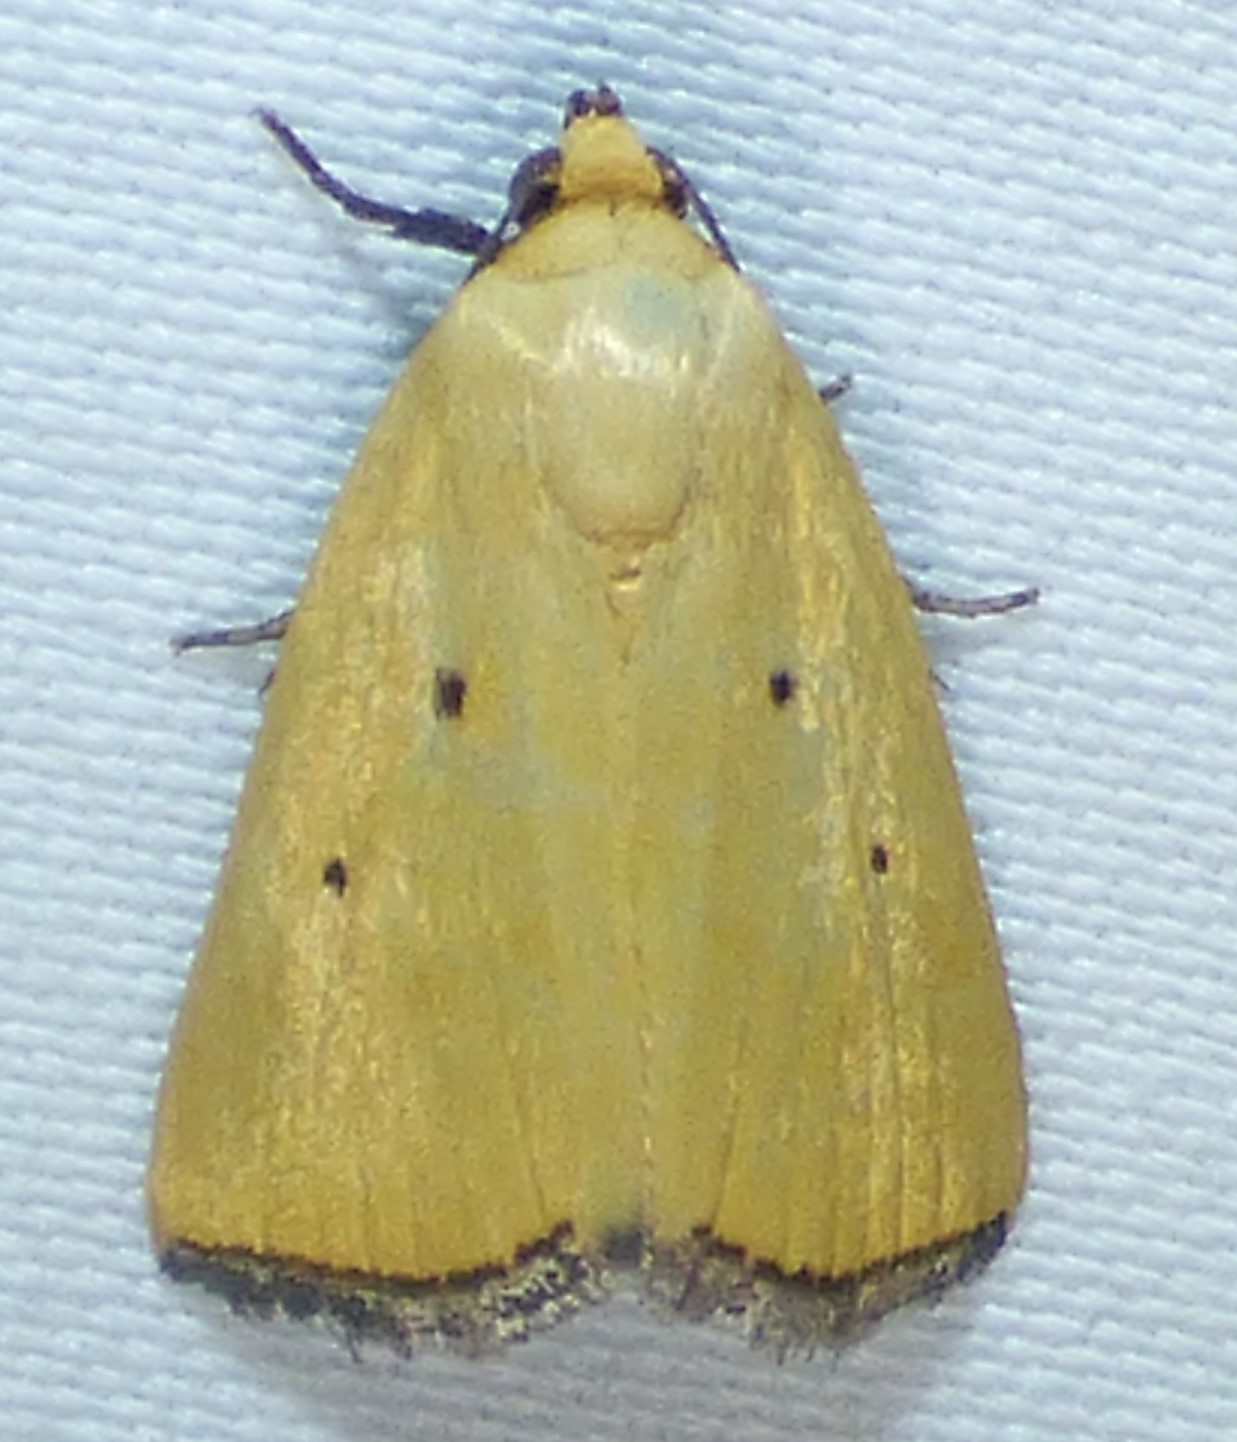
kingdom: Animalia
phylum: Arthropoda
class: Insecta
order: Lepidoptera
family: Noctuidae
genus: Marimatha
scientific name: Marimatha nigrofimbria
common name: Black-bordered lemon moth
